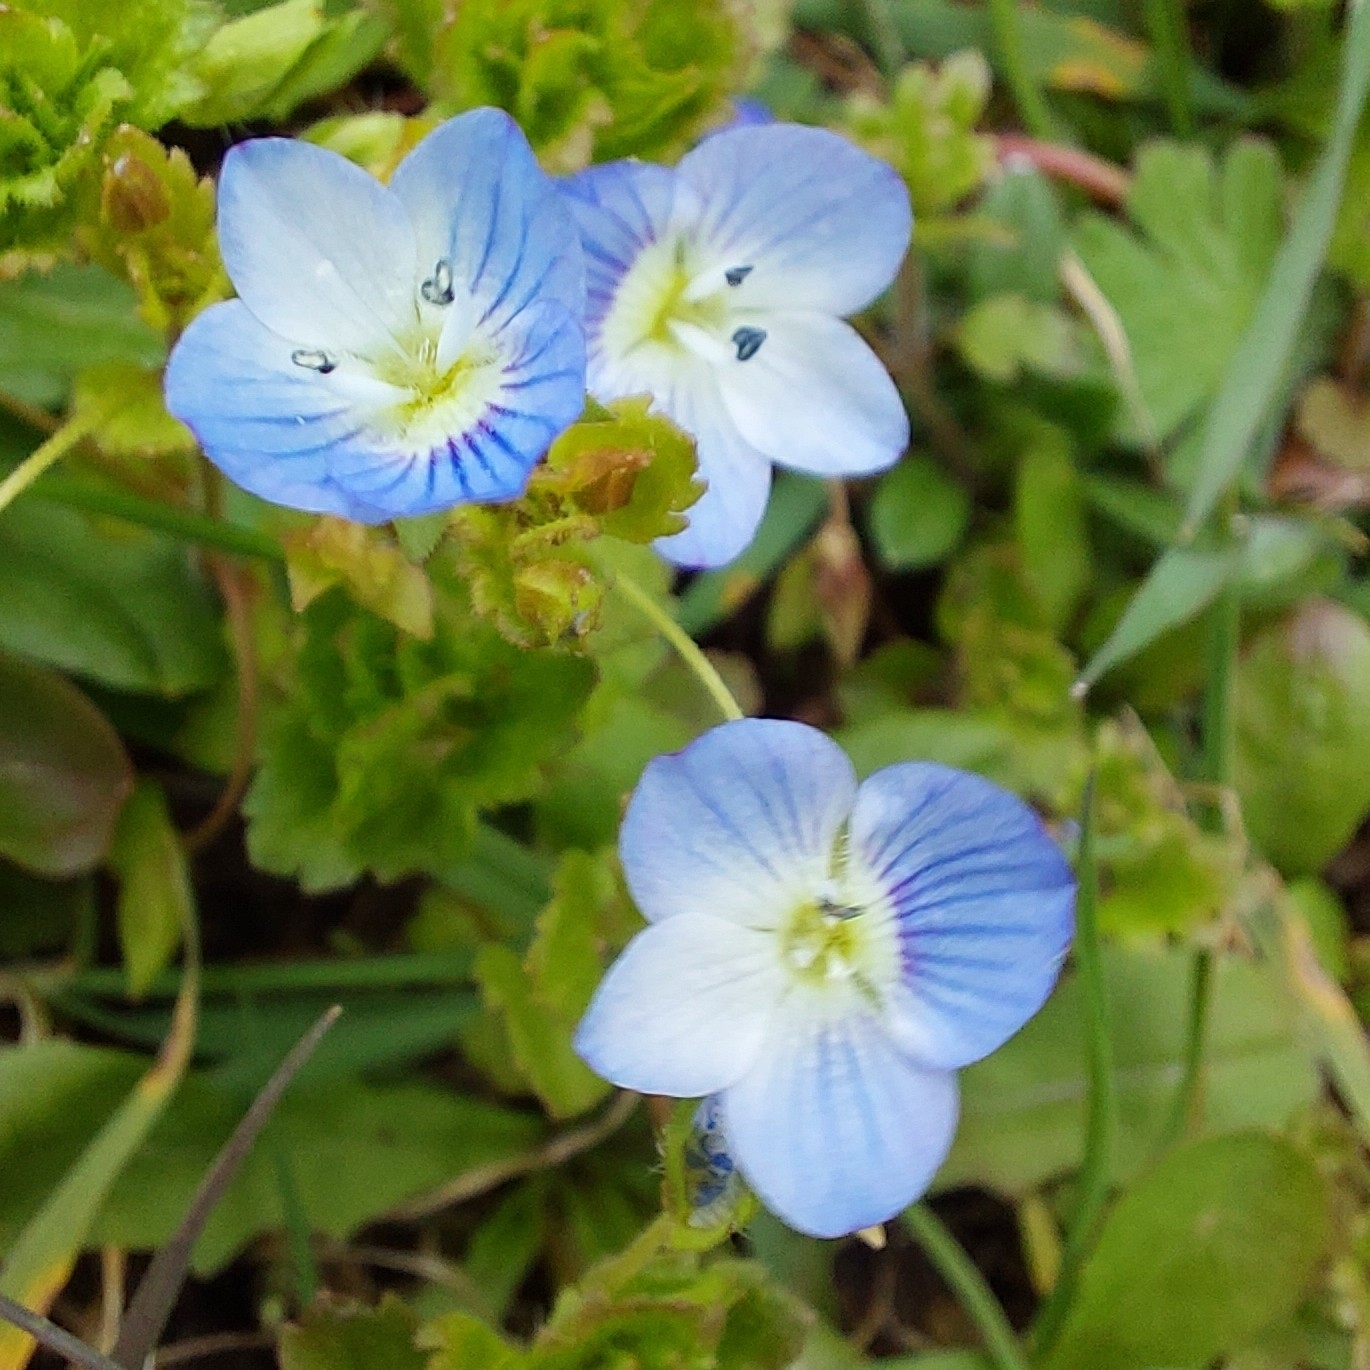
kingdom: Plantae
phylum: Tracheophyta
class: Magnoliopsida
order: Lamiales
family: Plantaginaceae
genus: Veronica
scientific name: Veronica persica
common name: Common field-speedwell
